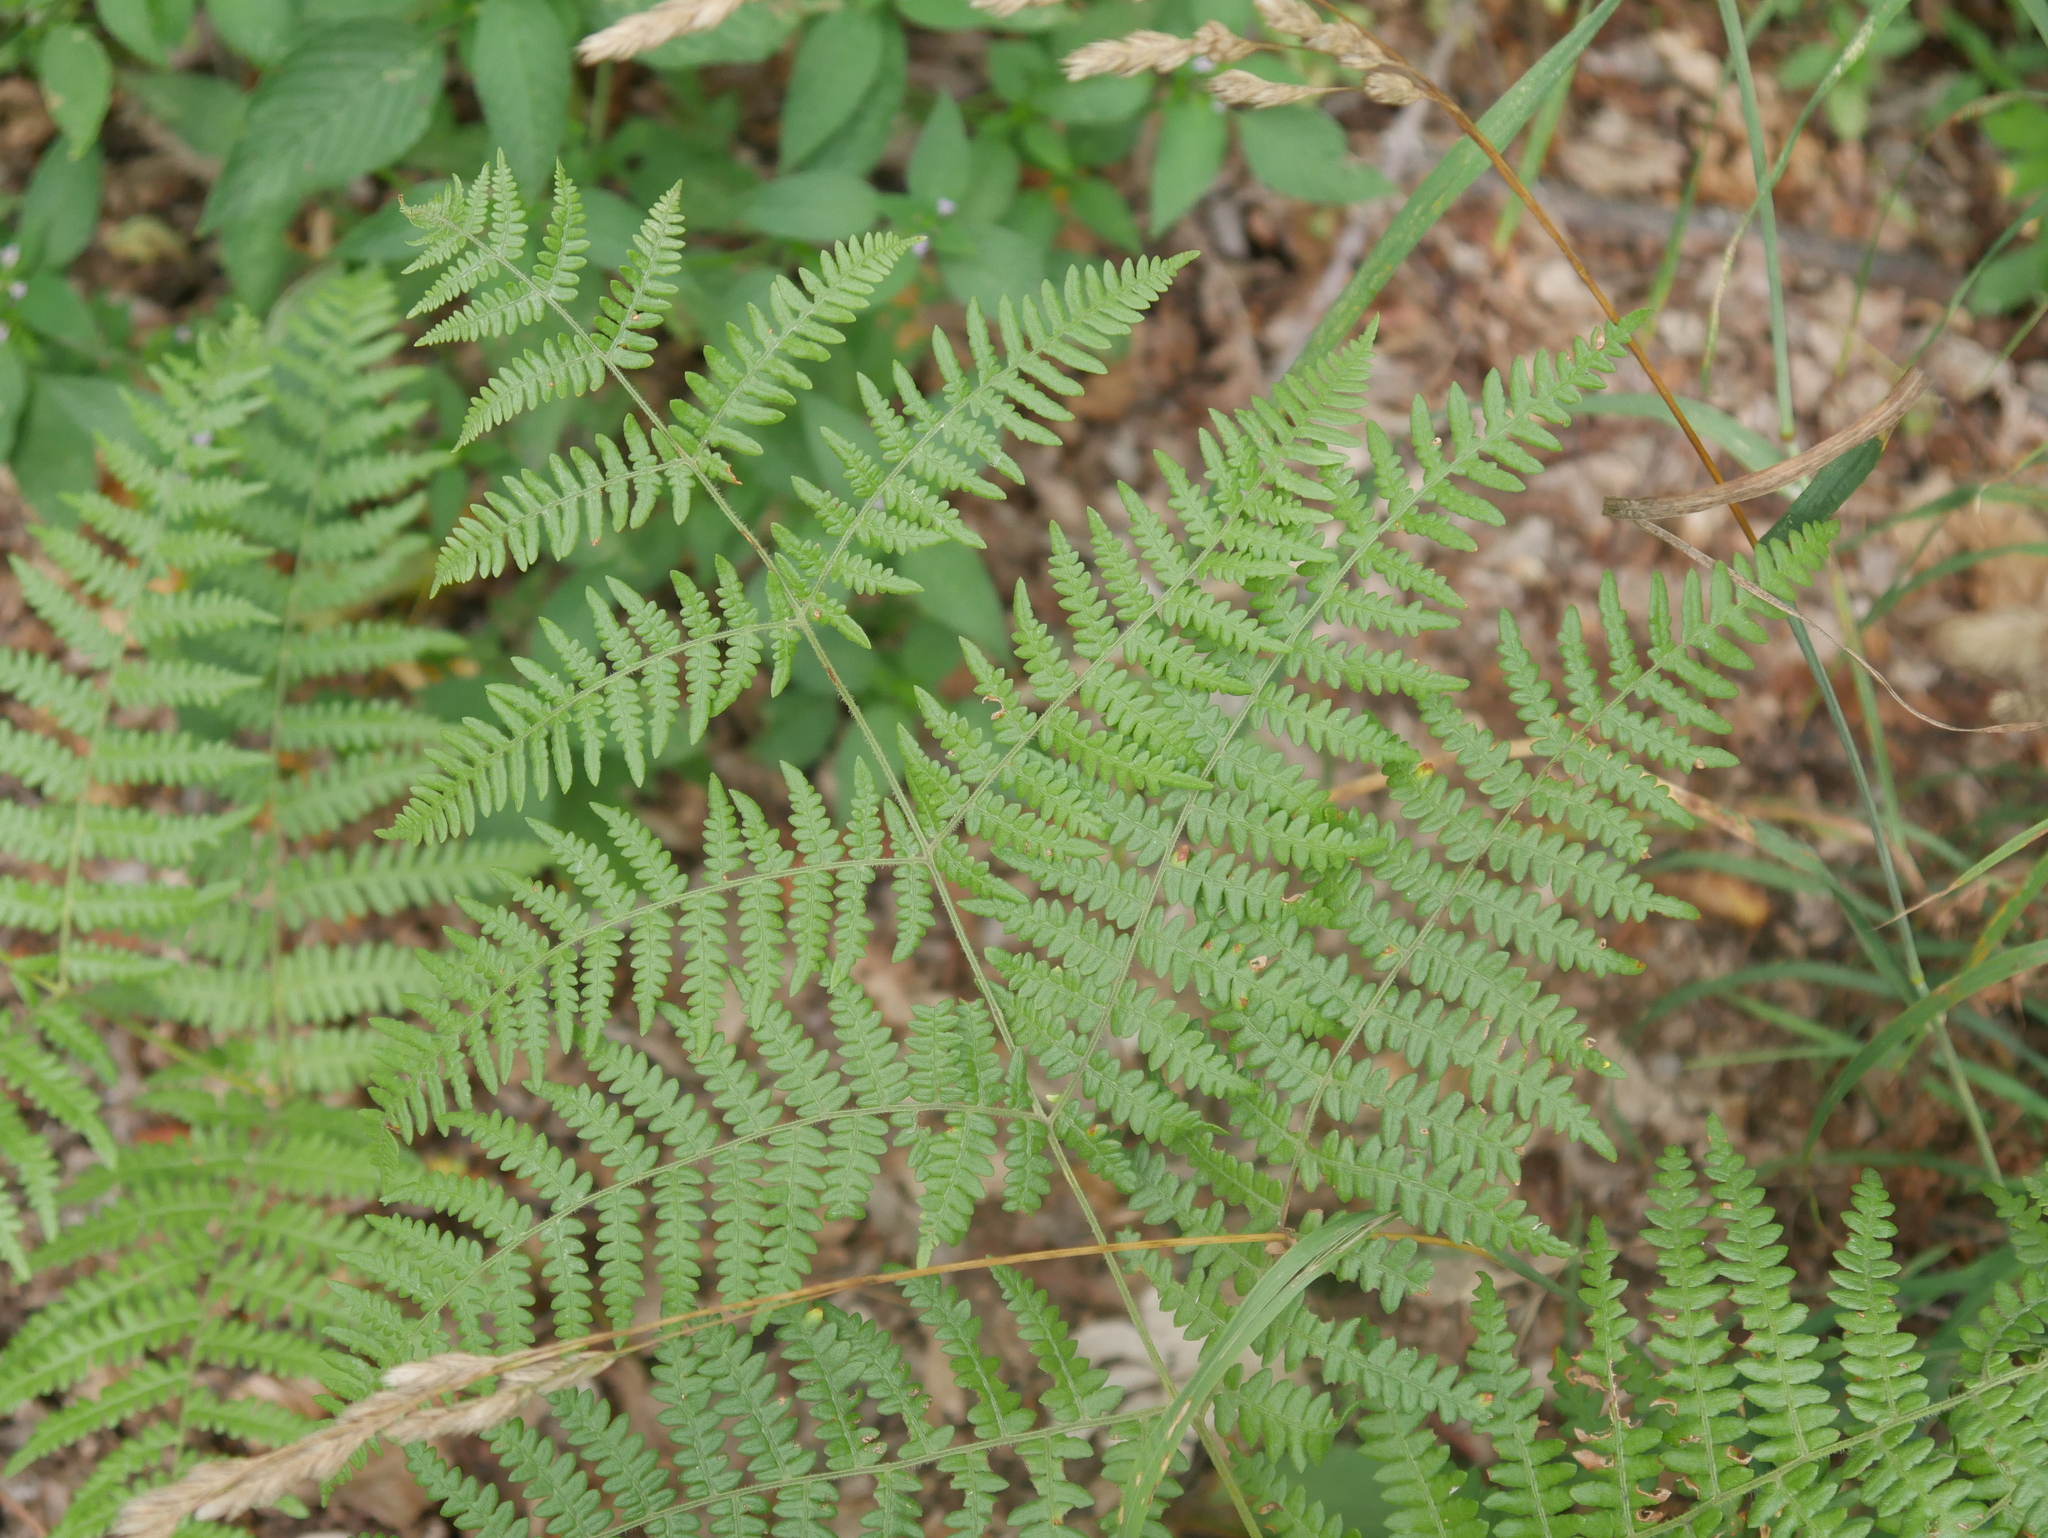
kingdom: Plantae
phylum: Tracheophyta
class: Polypodiopsida
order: Polypodiales
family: Dennstaedtiaceae
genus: Pteridium
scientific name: Pteridium aquilinum
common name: Bracken
